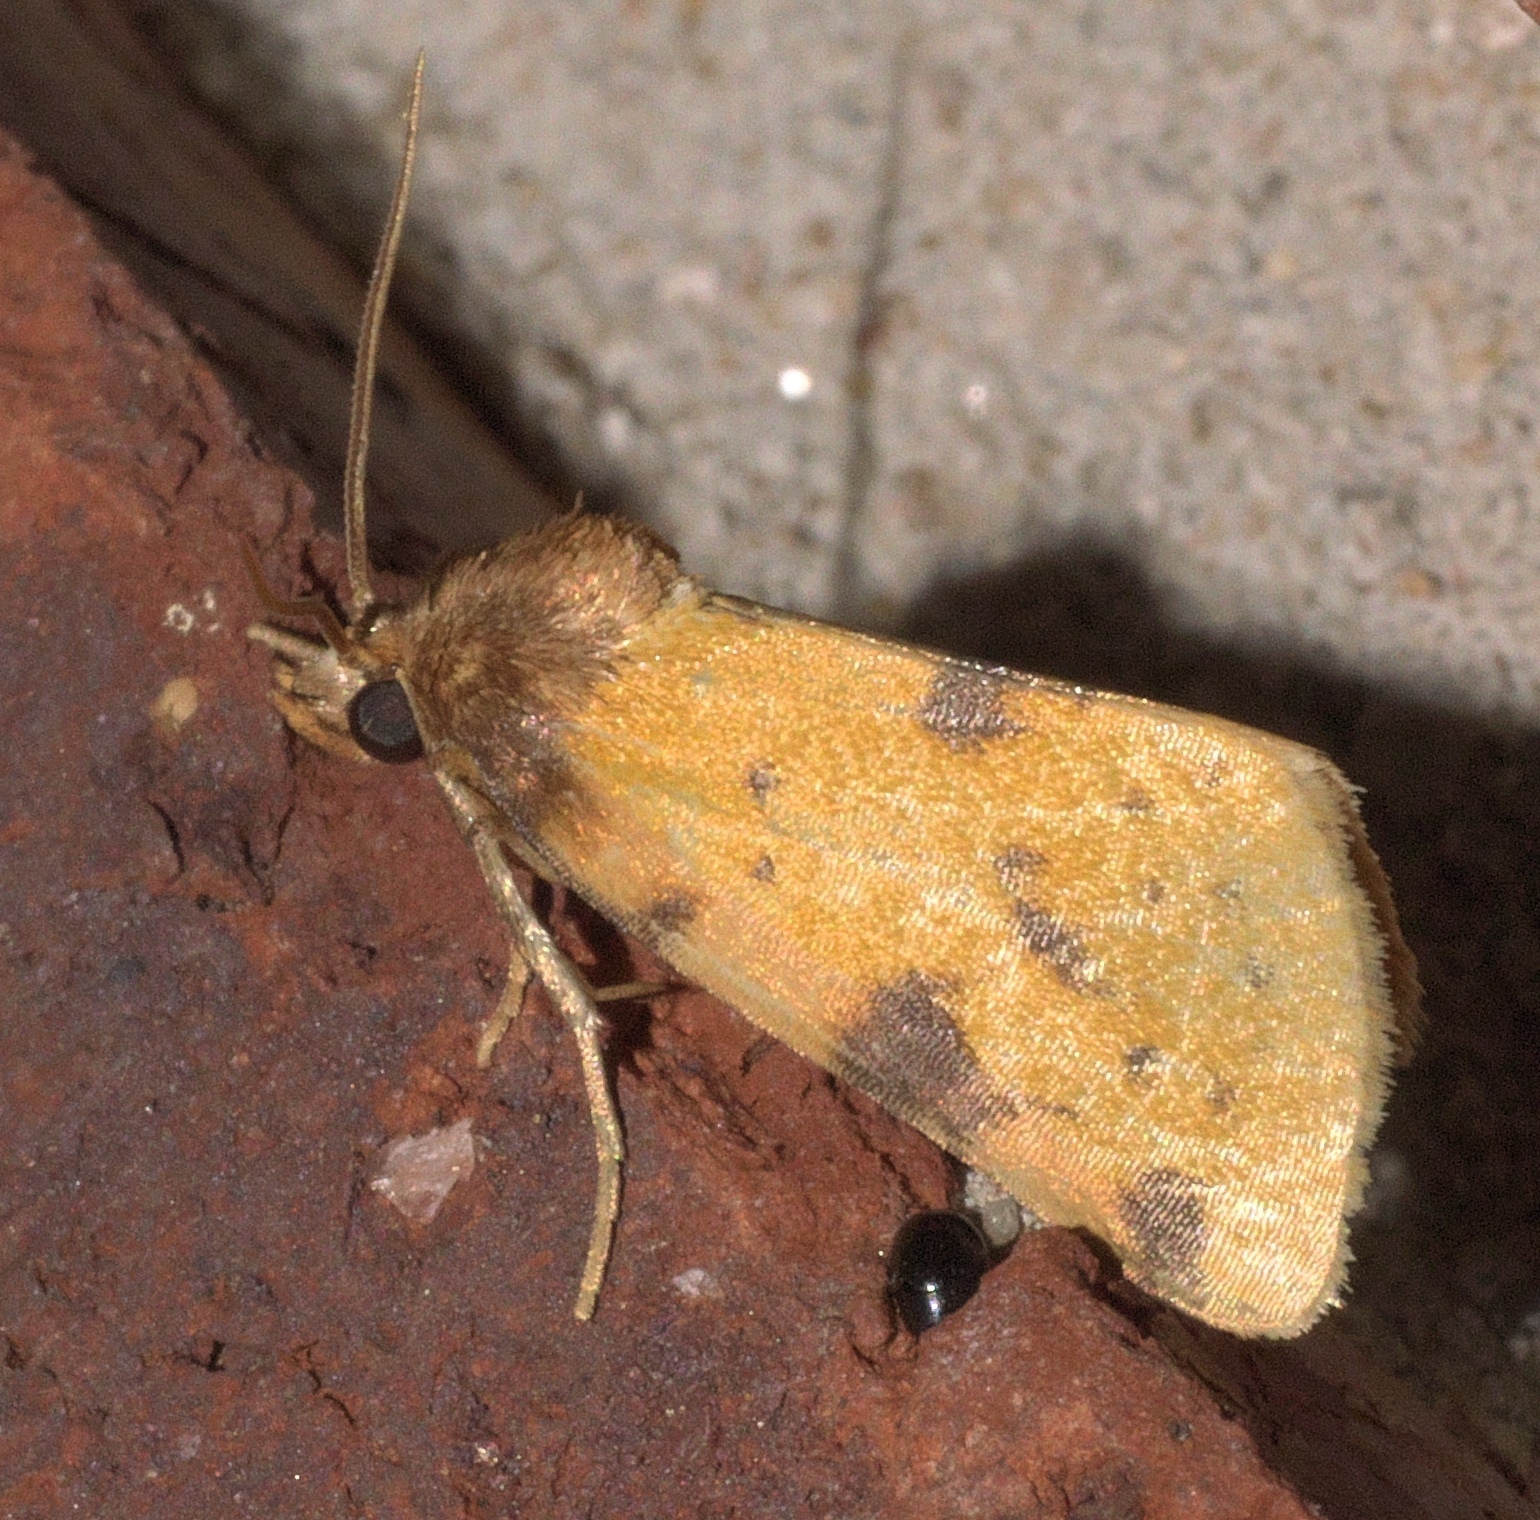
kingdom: Animalia
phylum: Arthropoda
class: Insecta
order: Lepidoptera
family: Noctuidae
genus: Azenia
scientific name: Azenia obtusa
